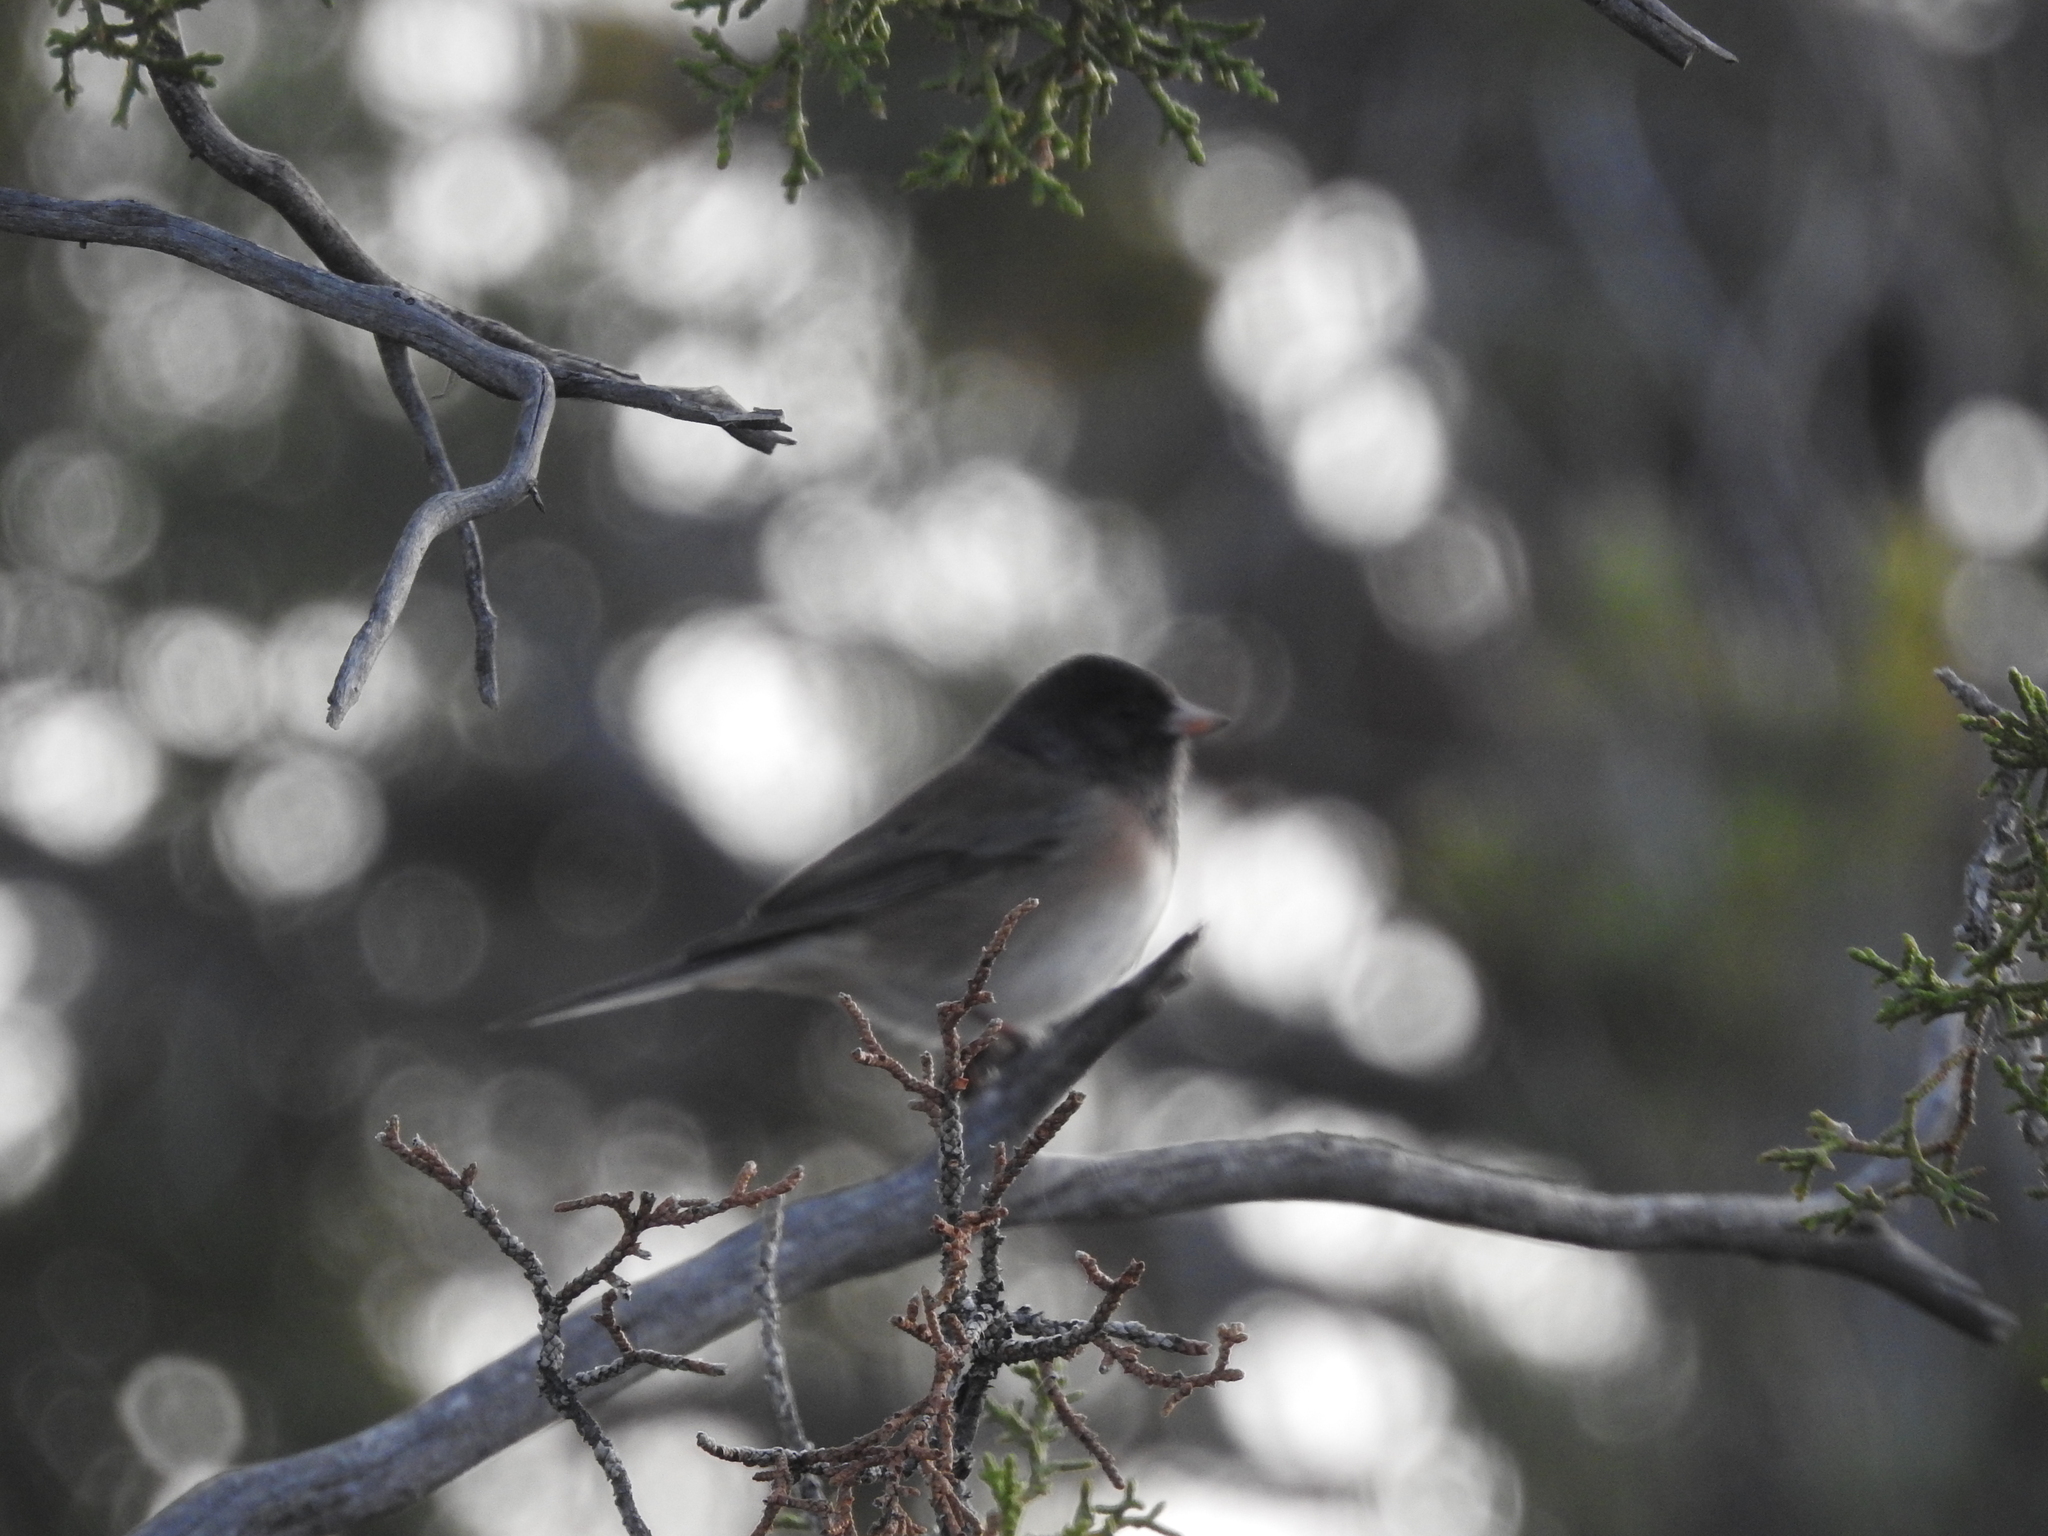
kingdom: Animalia
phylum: Chordata
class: Aves
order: Passeriformes
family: Passerellidae
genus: Junco
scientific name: Junco hyemalis
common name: Dark-eyed junco
